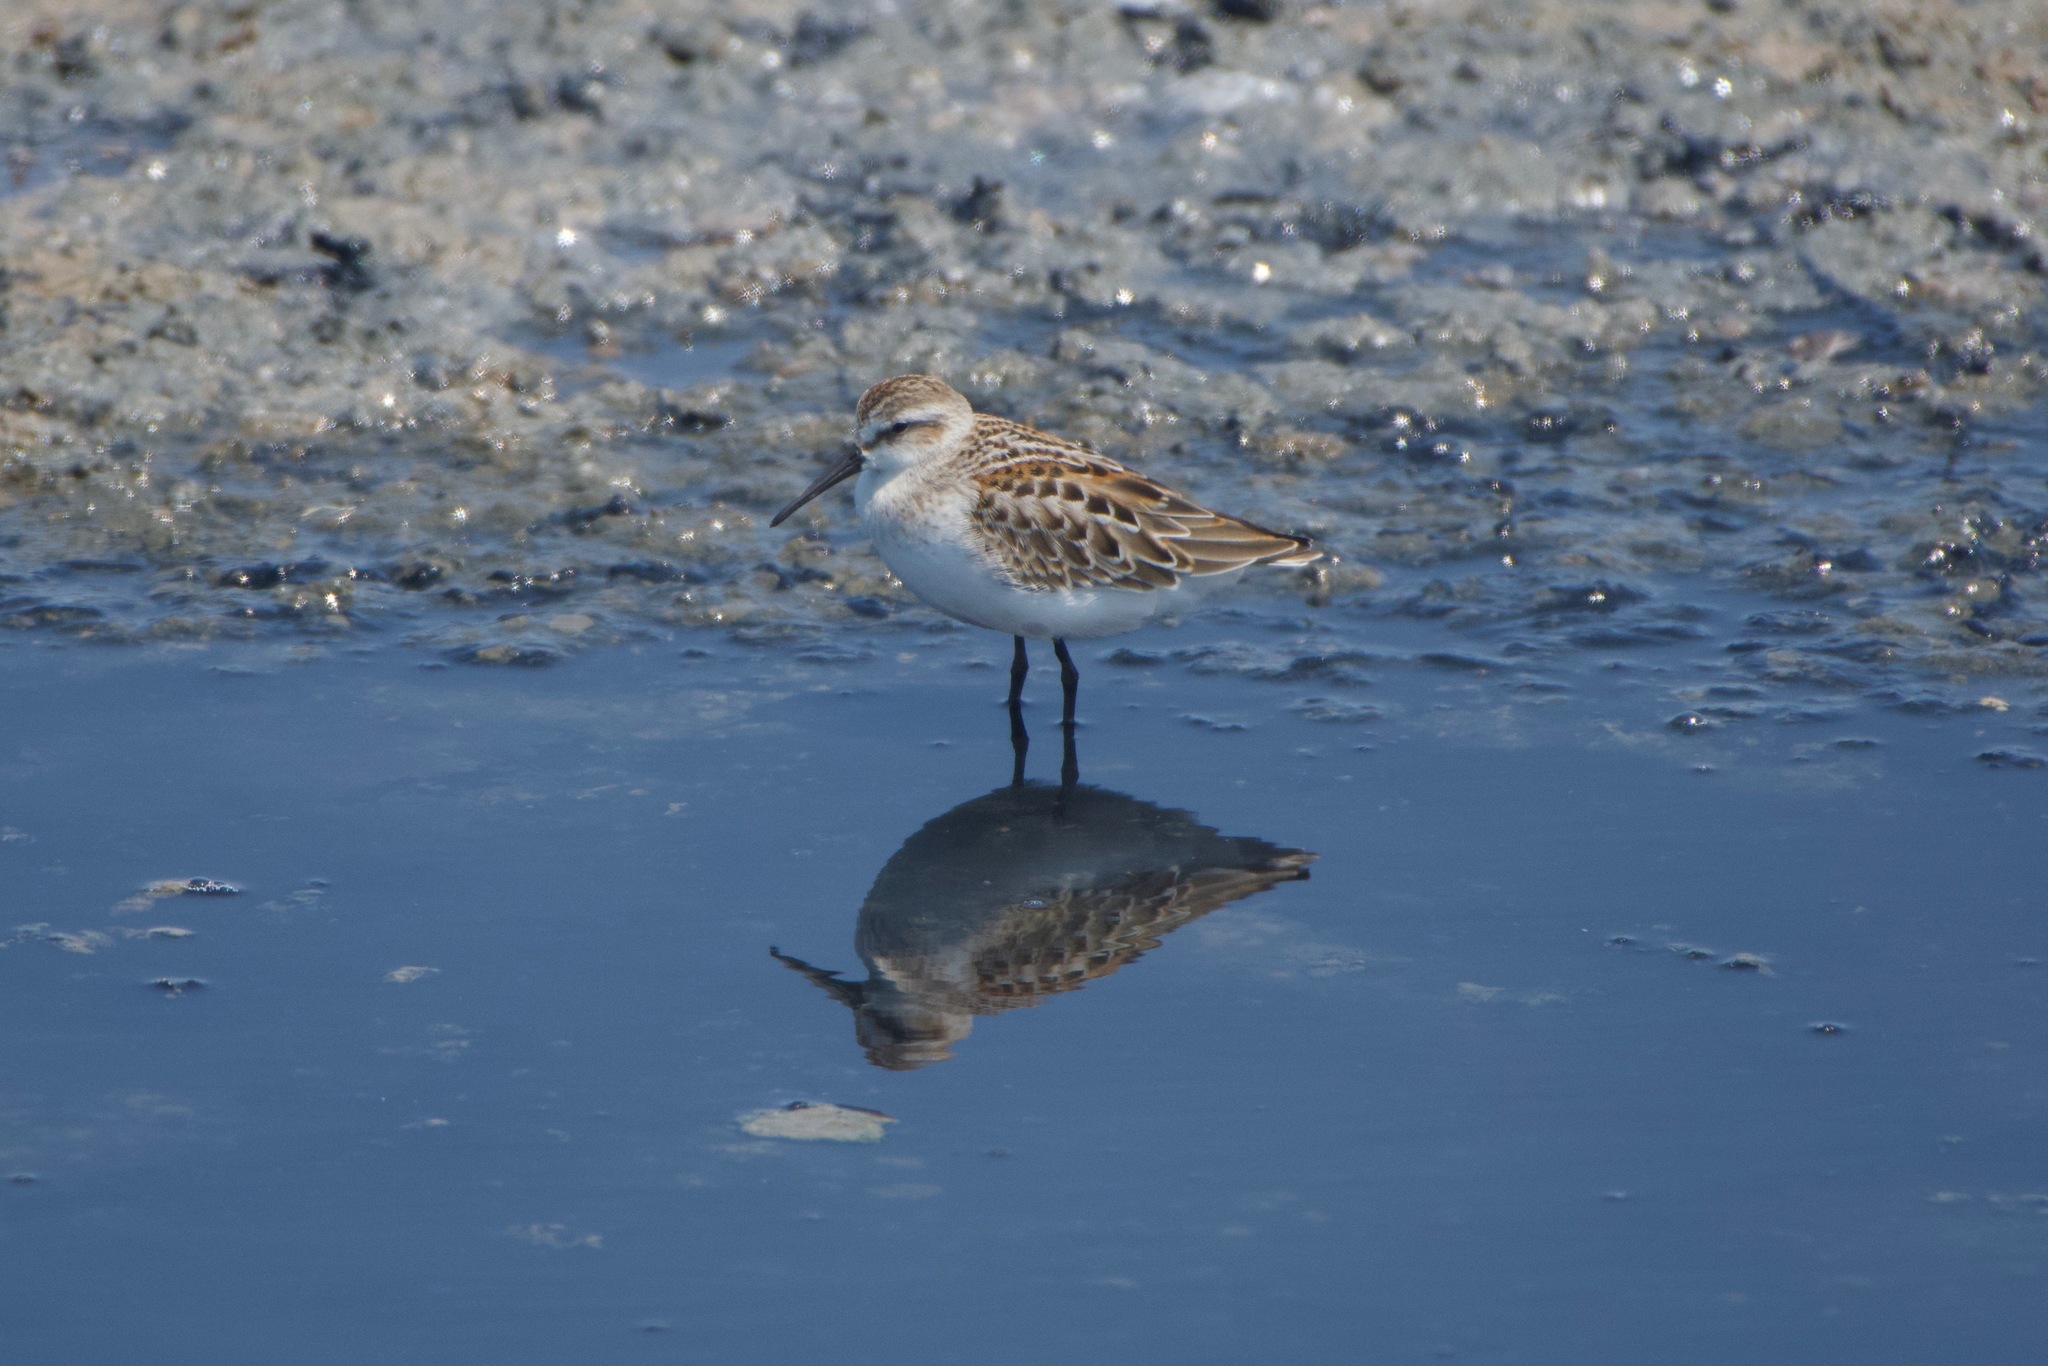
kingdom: Animalia
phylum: Chordata
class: Aves
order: Charadriiformes
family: Scolopacidae
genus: Calidris
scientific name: Calidris mauri
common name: Western sandpiper
